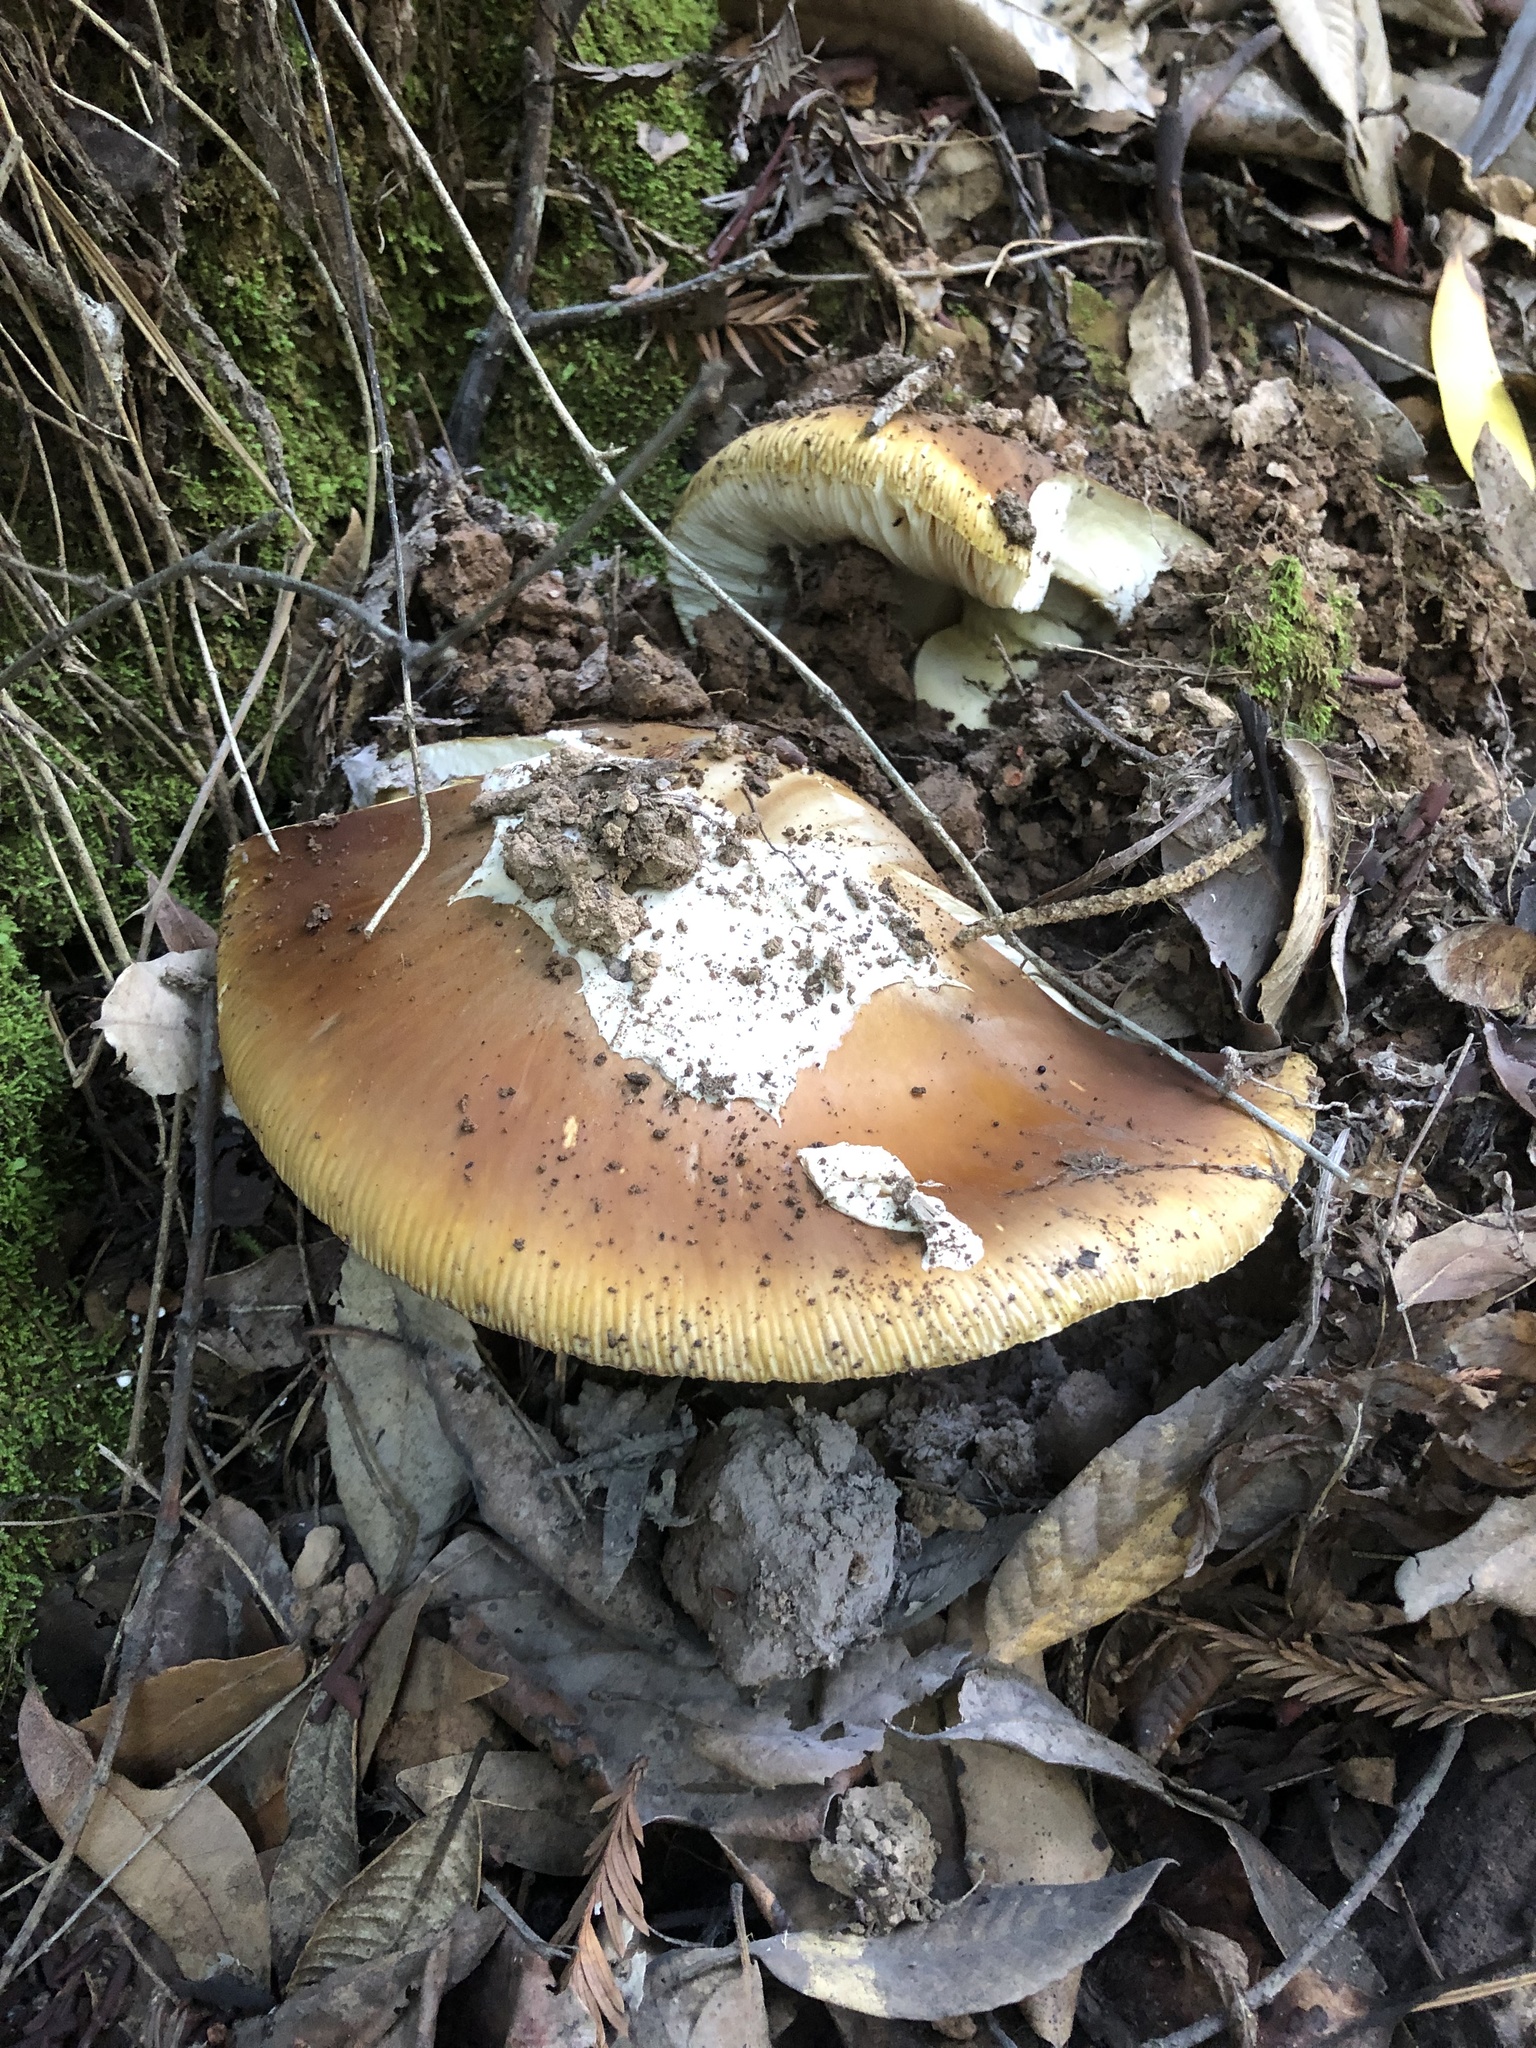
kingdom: Fungi
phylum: Basidiomycota
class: Agaricomycetes
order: Agaricales
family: Amanitaceae
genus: Amanita
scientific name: Amanita calyptroderma
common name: Coccora
